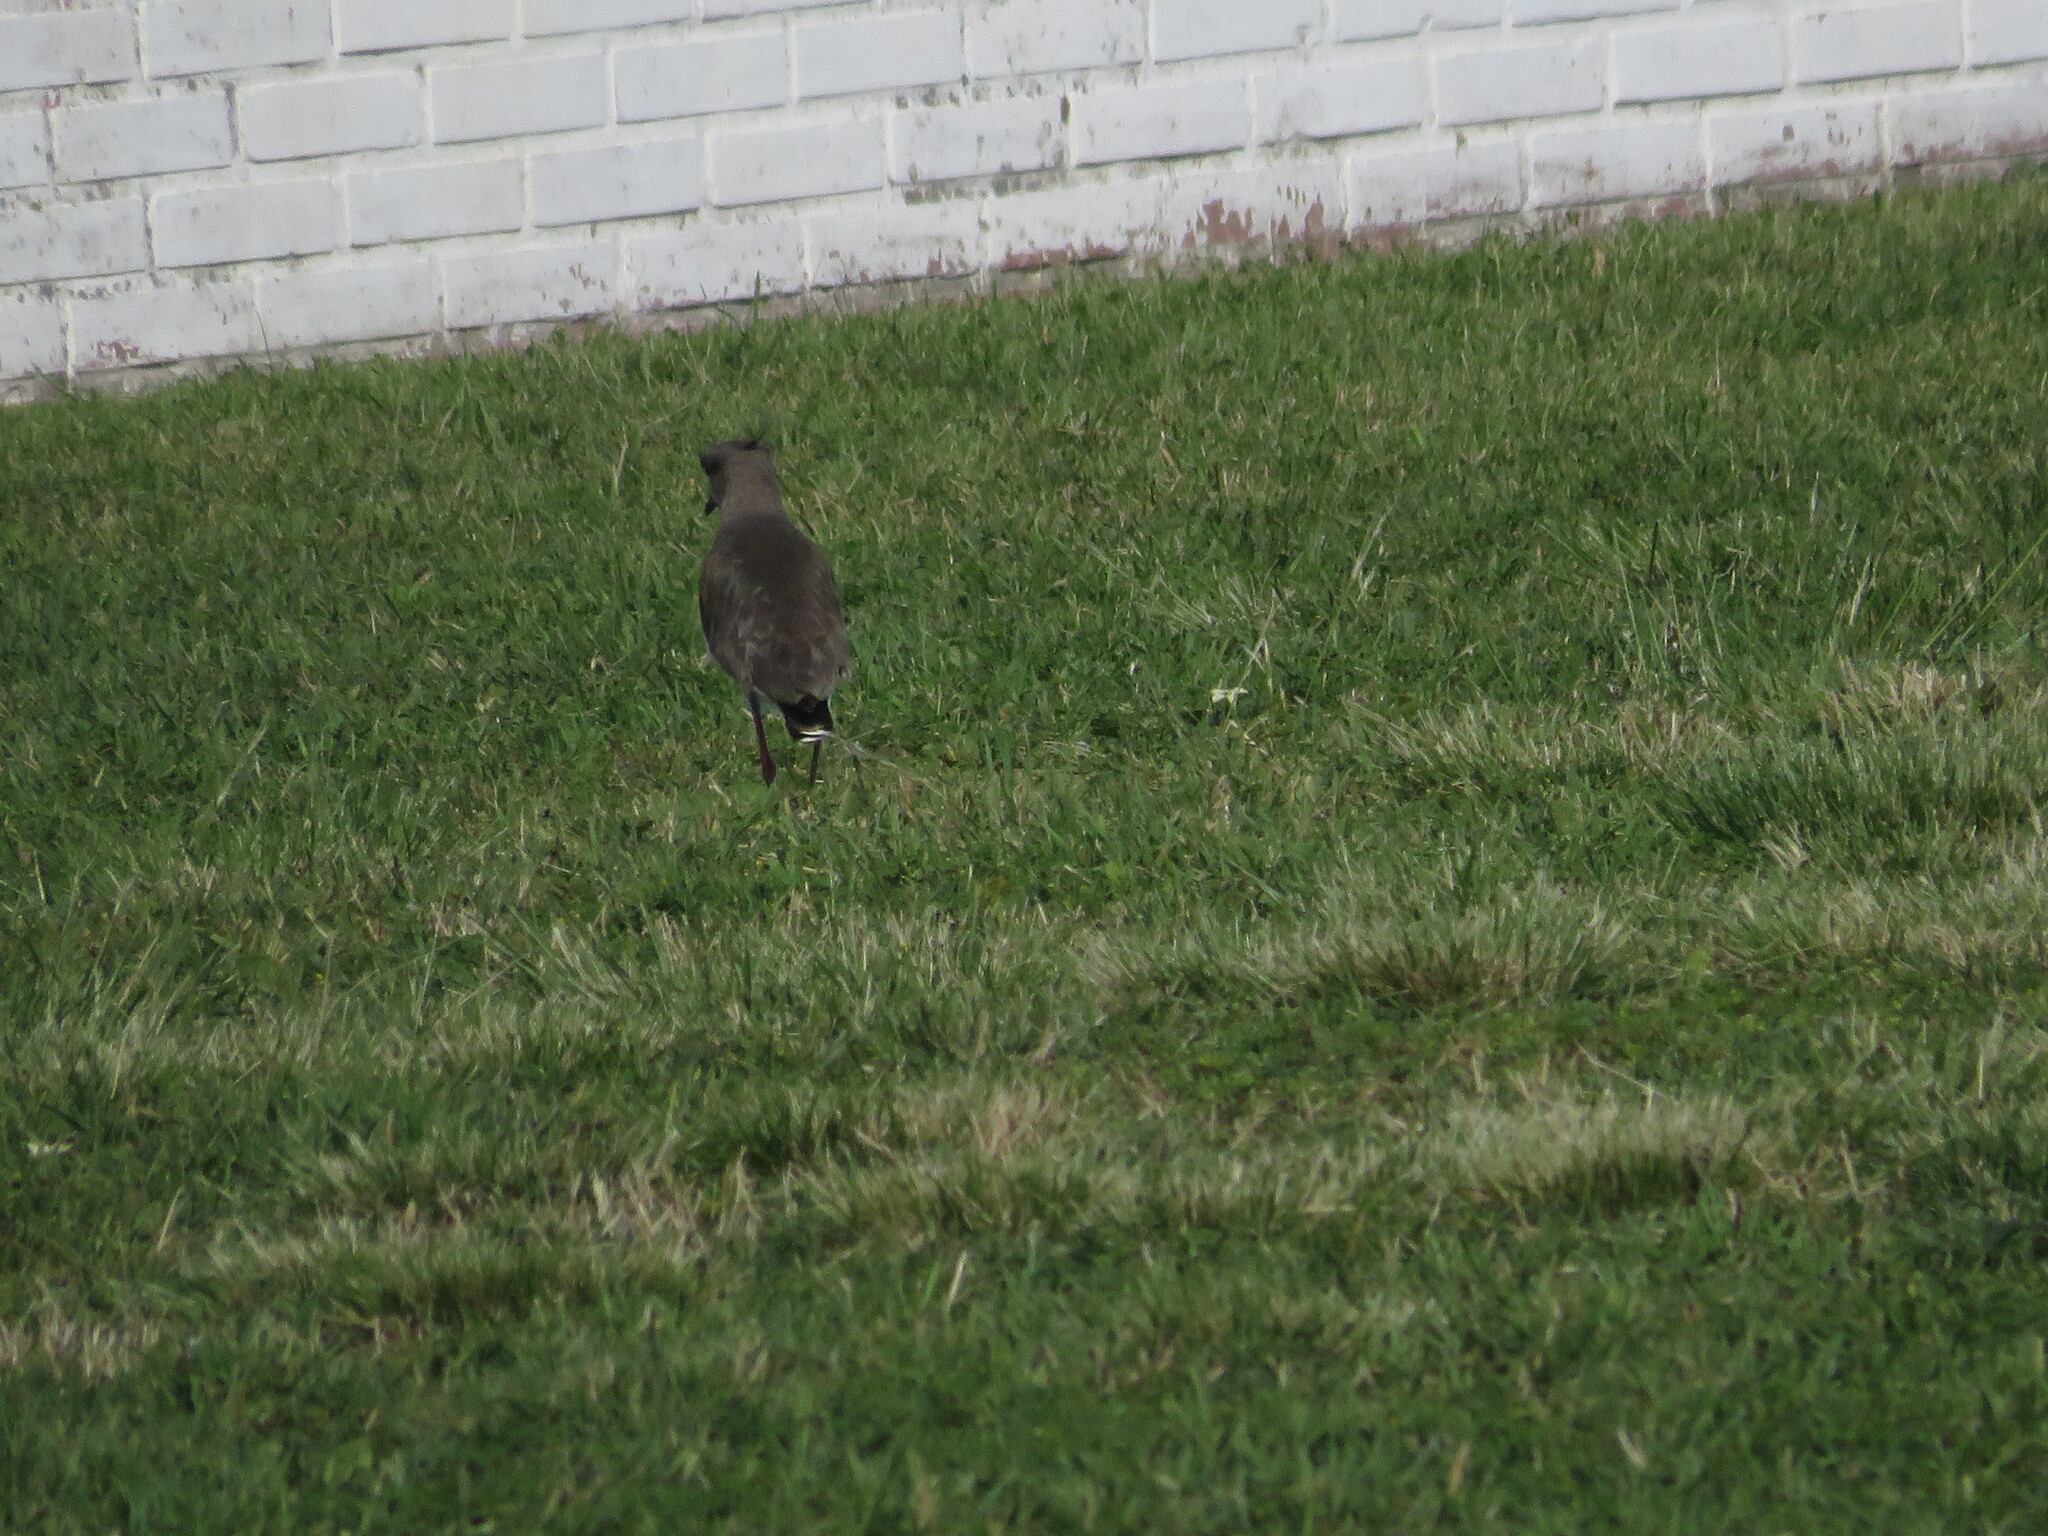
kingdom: Animalia
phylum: Chordata
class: Aves
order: Charadriiformes
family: Charadriidae
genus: Vanellus
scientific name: Vanellus chilensis
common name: Southern lapwing
